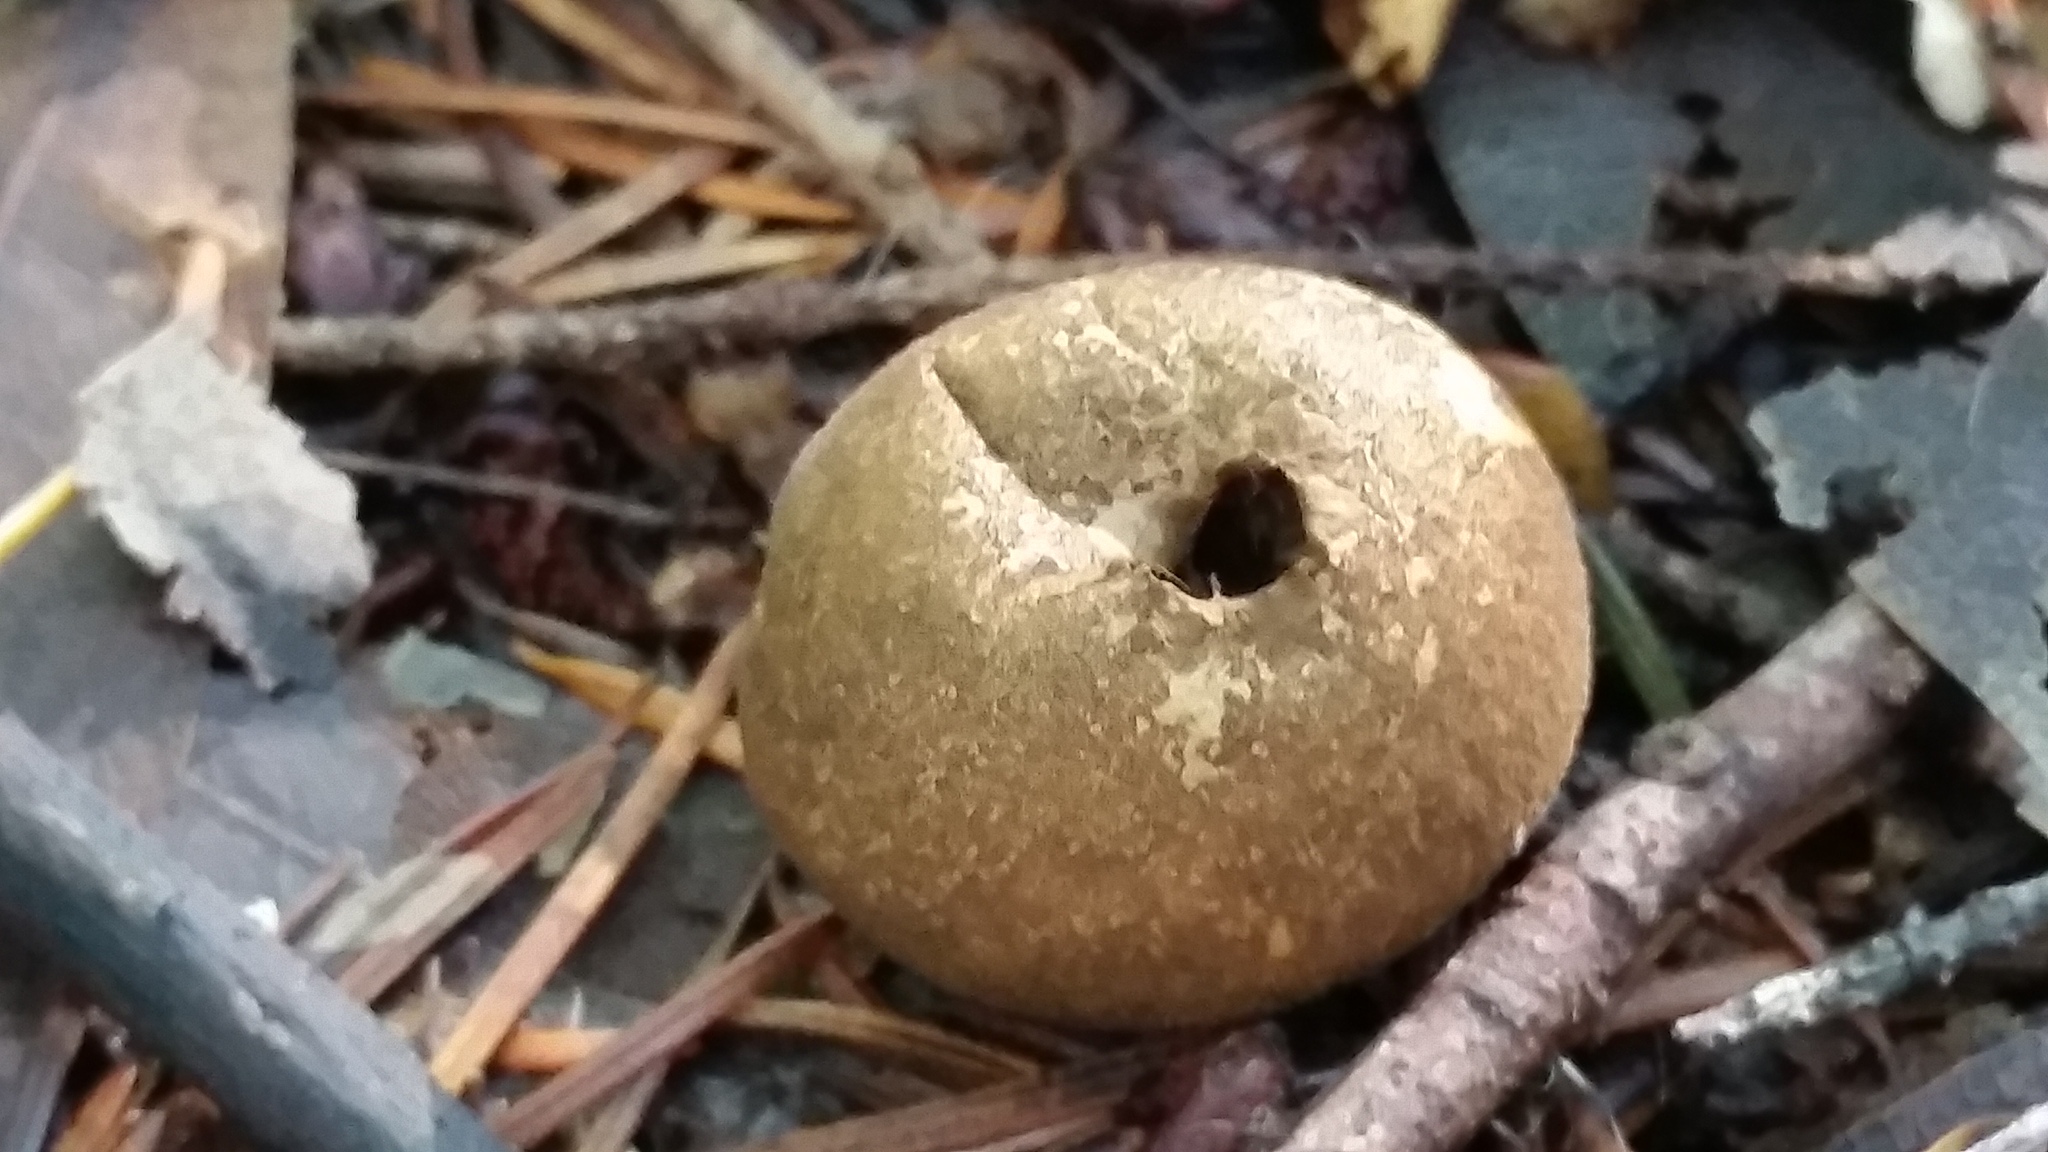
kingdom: Fungi
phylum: Basidiomycota
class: Agaricomycetes
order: Agaricales
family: Lycoperdaceae
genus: Lycoperdon
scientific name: Lycoperdon umbrinum
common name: Umber-brown puffball
